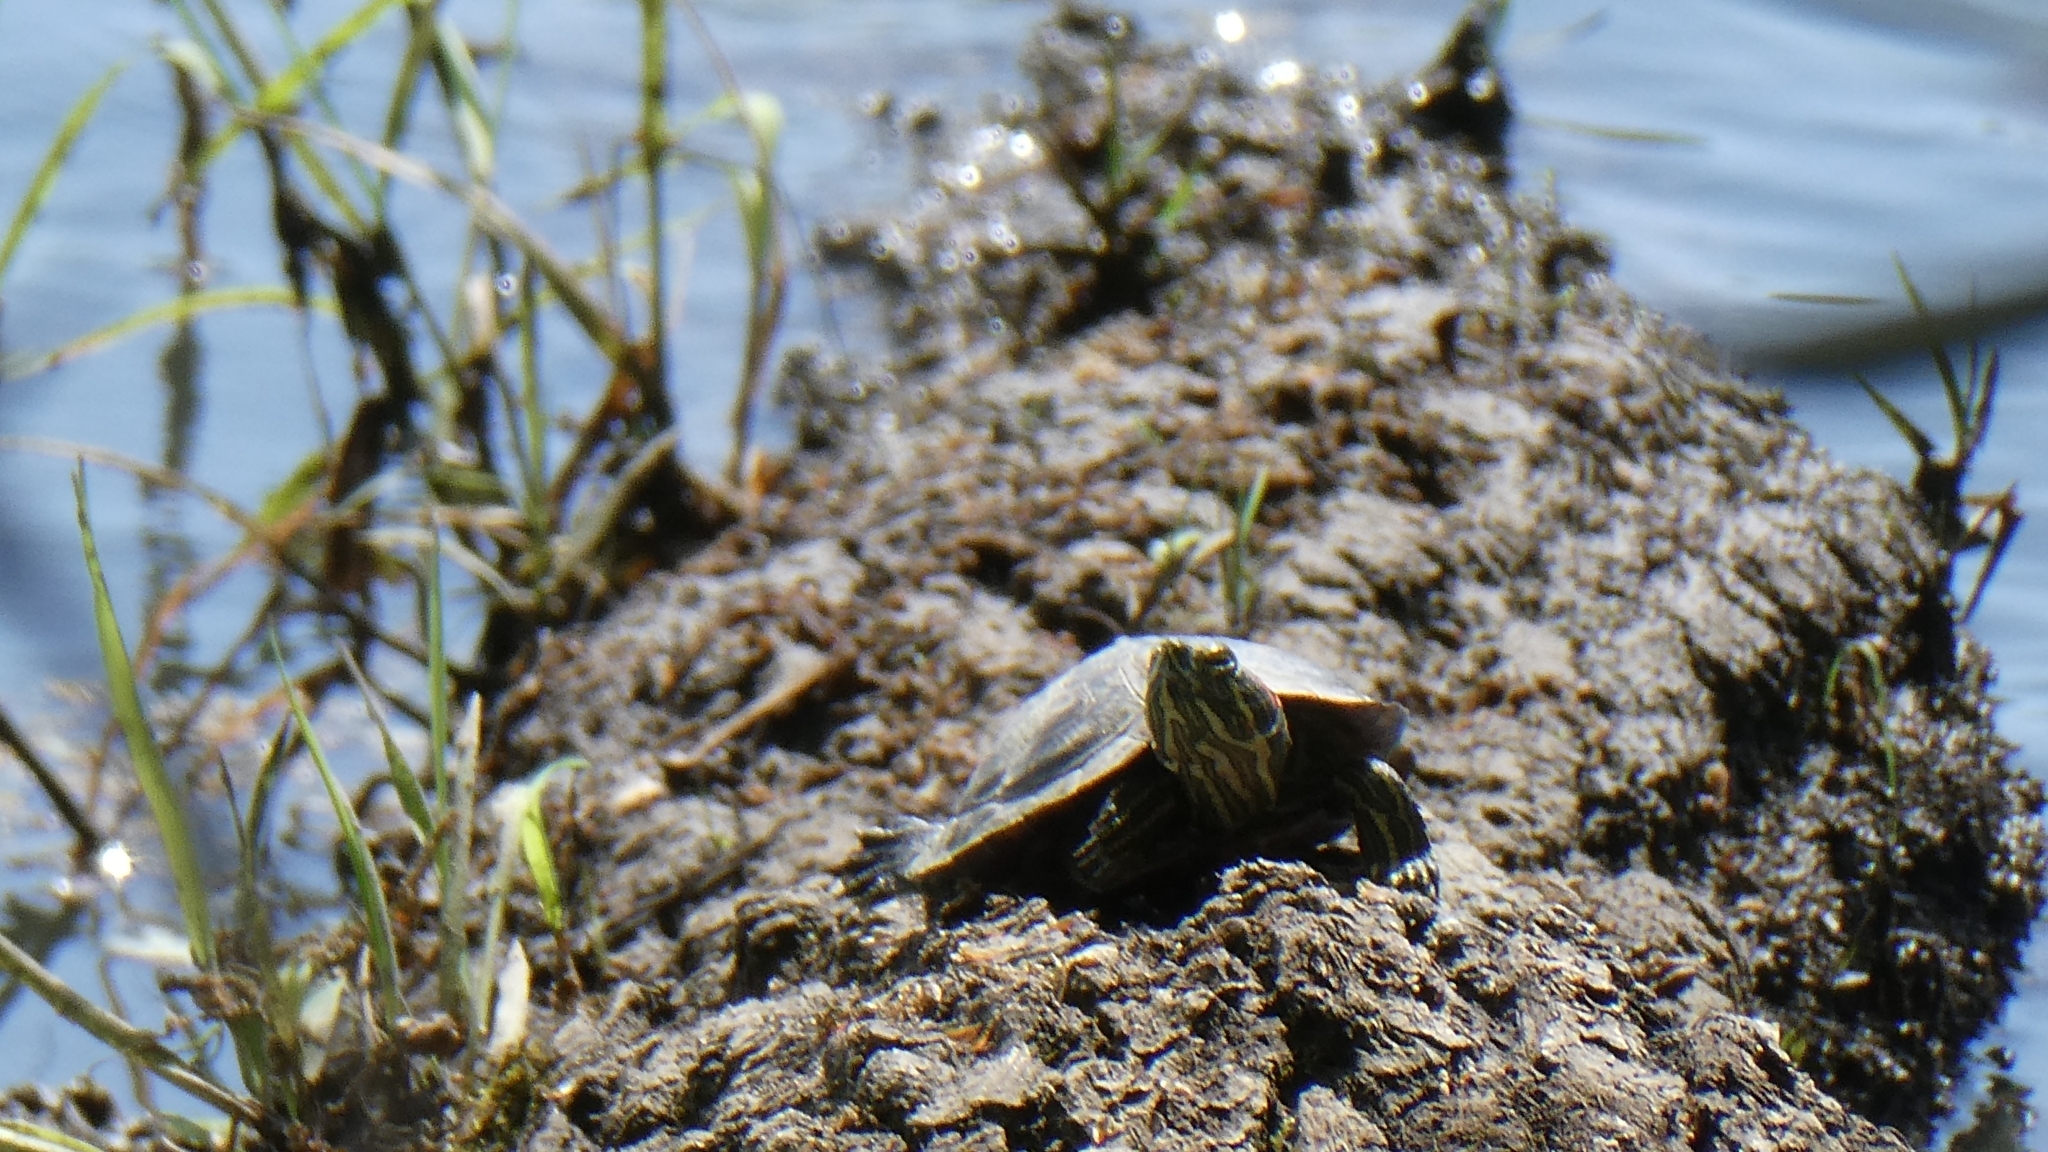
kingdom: Animalia
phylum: Chordata
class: Testudines
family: Emydidae
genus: Trachemys
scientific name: Trachemys scripta
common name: Slider
